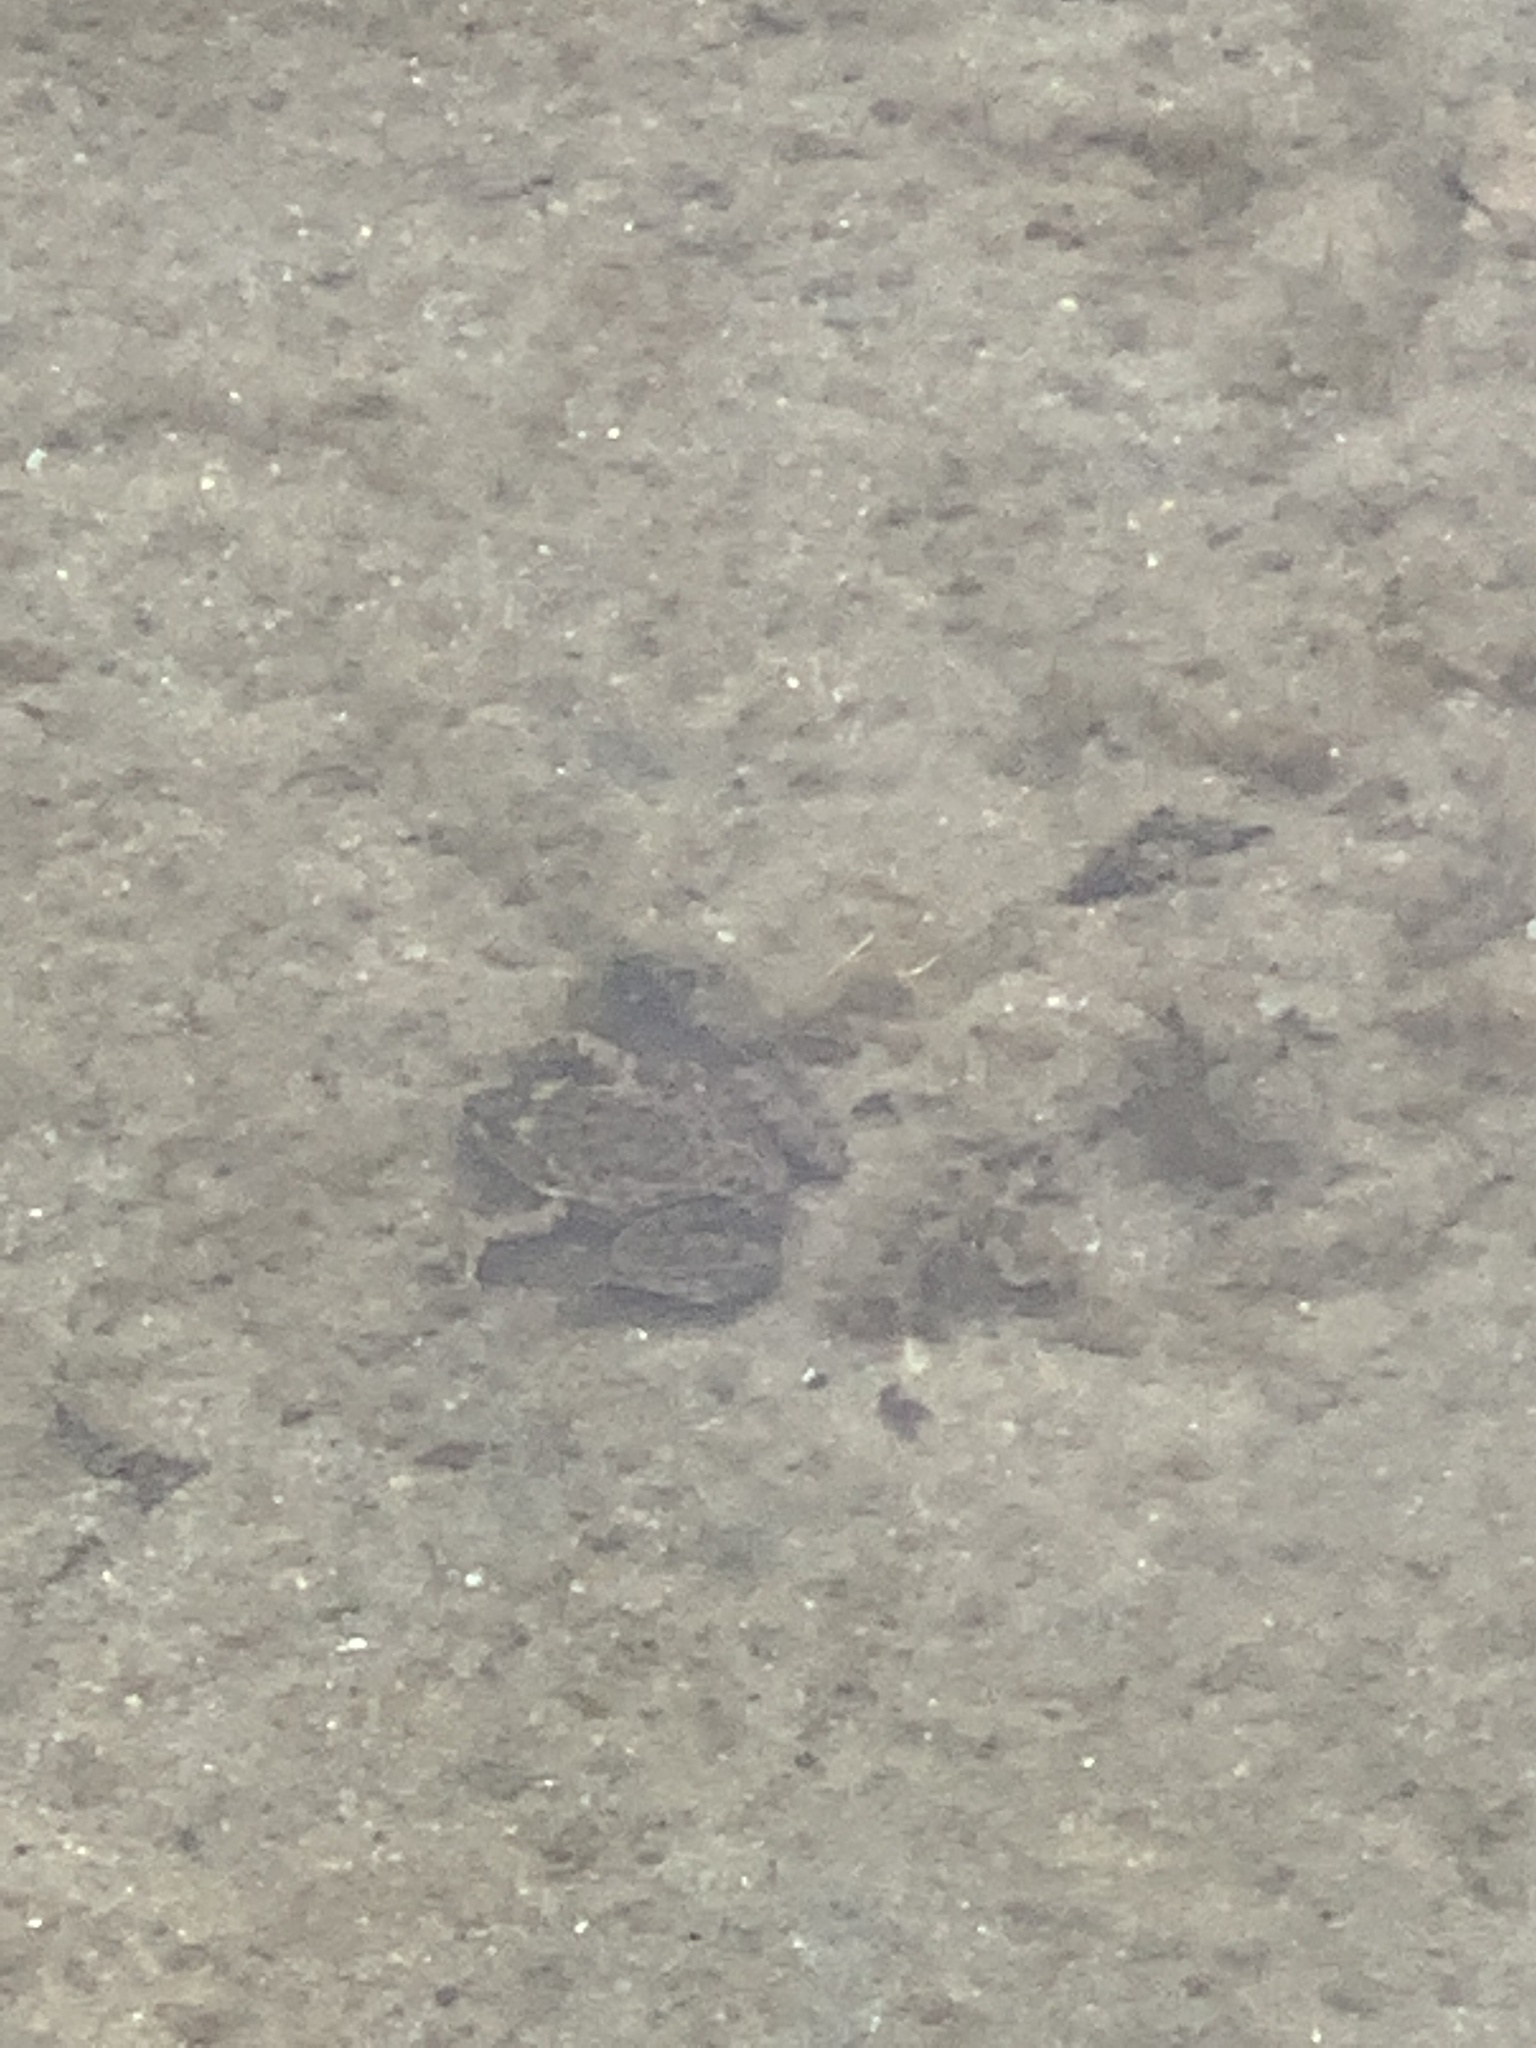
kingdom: Animalia
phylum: Chordata
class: Amphibia
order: Anura
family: Ranidae
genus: Lithobates
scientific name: Lithobates
